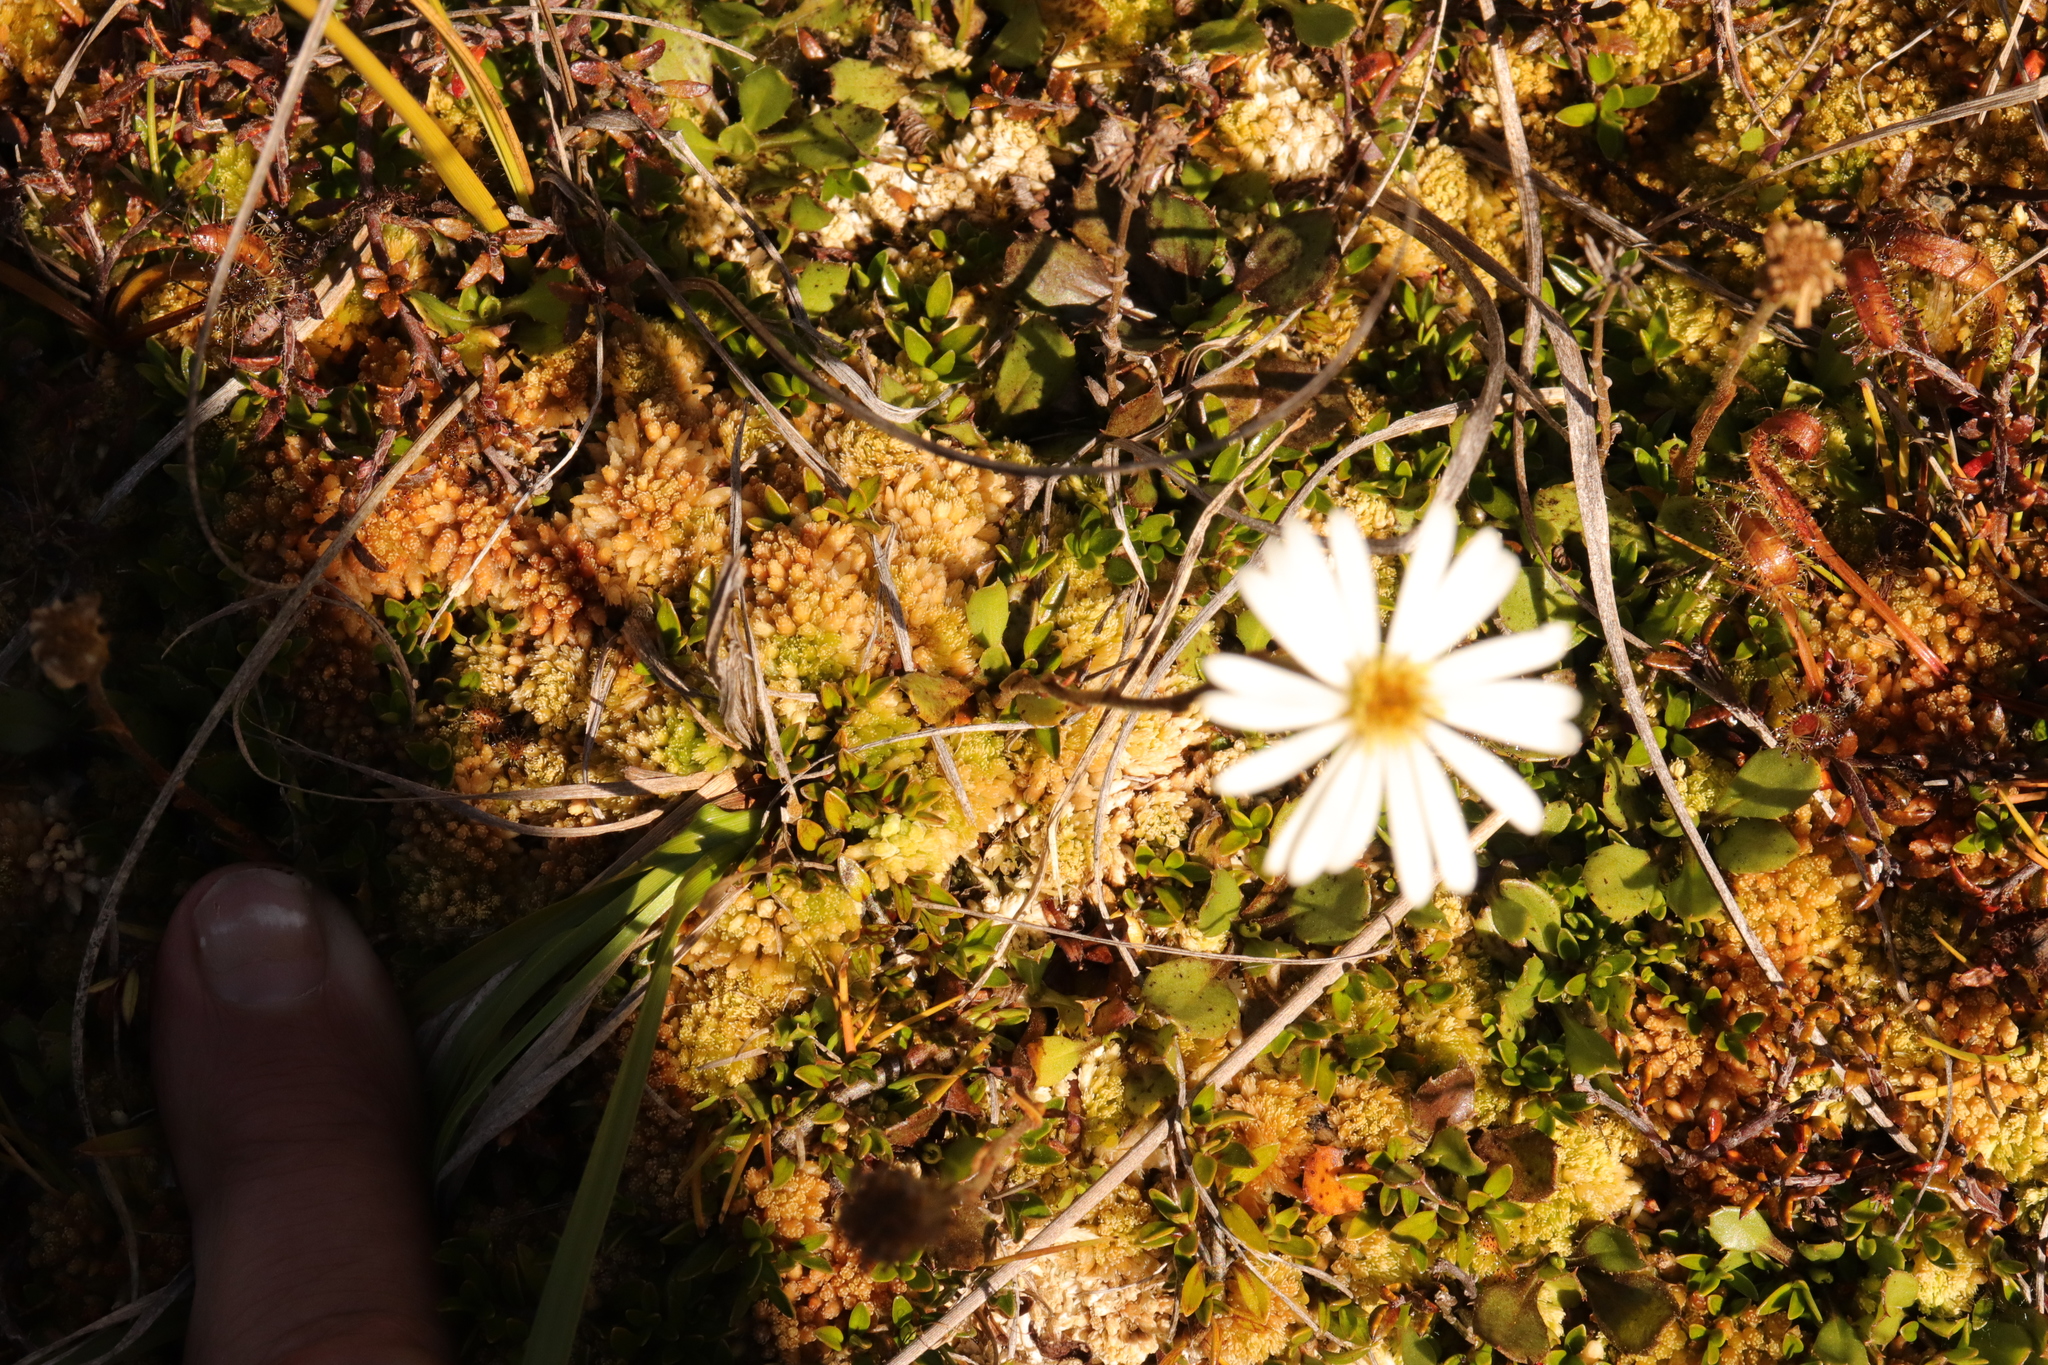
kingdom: Plantae
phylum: Tracheophyta
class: Magnoliopsida
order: Asterales
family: Asteraceae
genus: Celmisia
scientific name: Celmisia glandulosa
